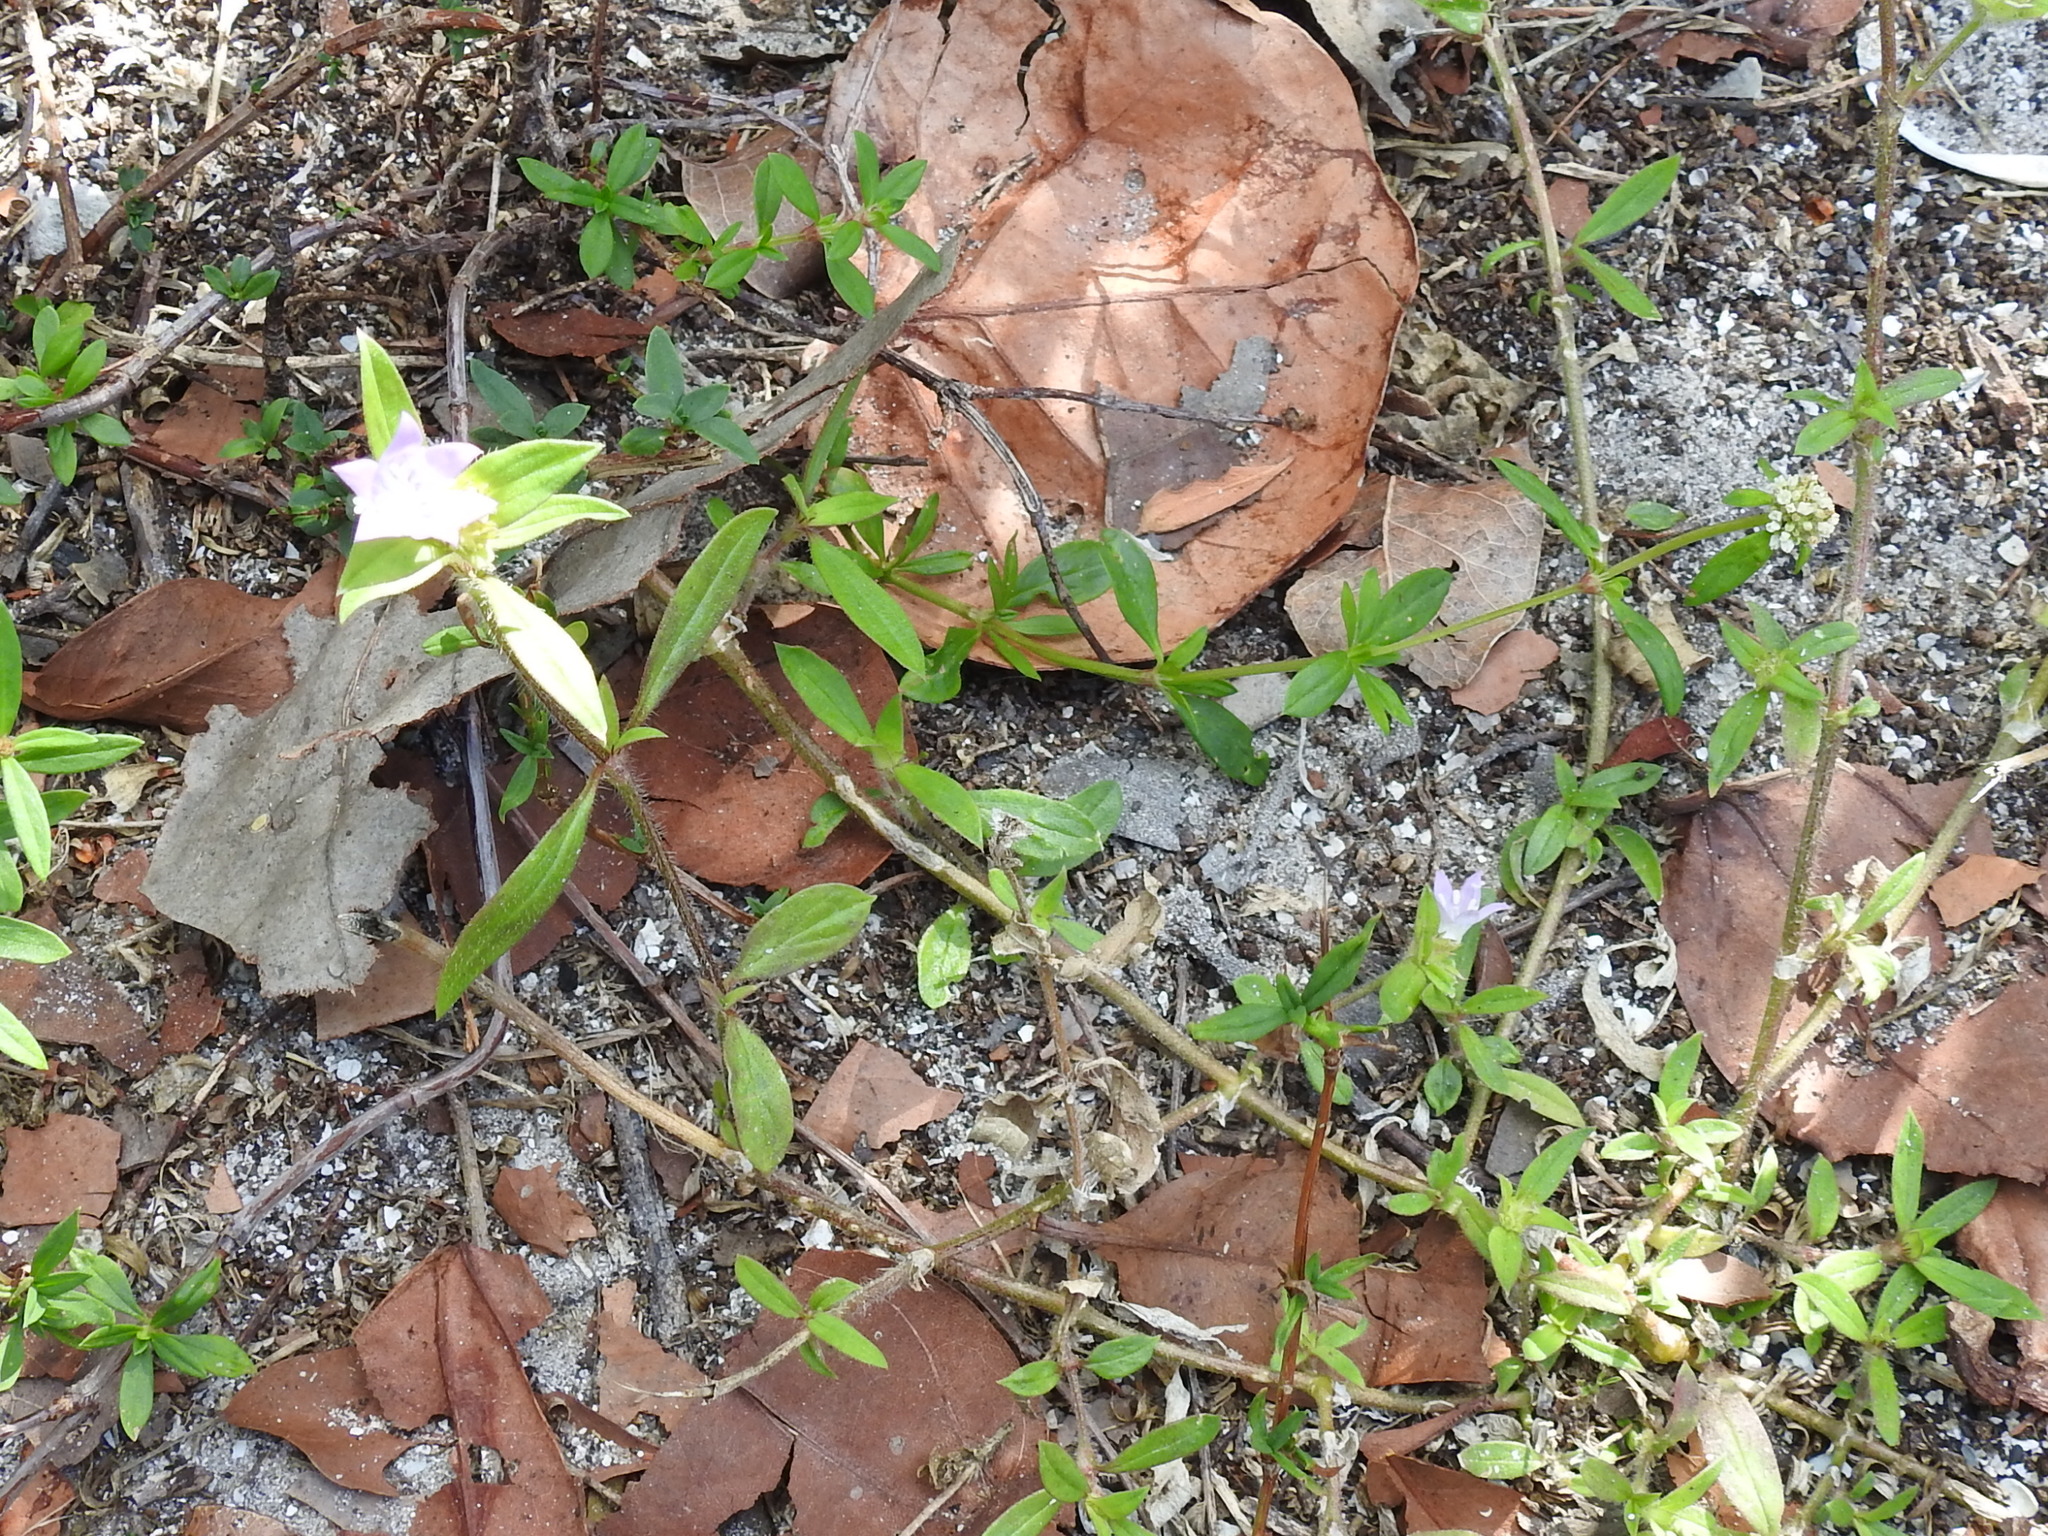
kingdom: Plantae
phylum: Tracheophyta
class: Magnoliopsida
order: Gentianales
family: Rubiaceae
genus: Richardia
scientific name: Richardia grandiflora
